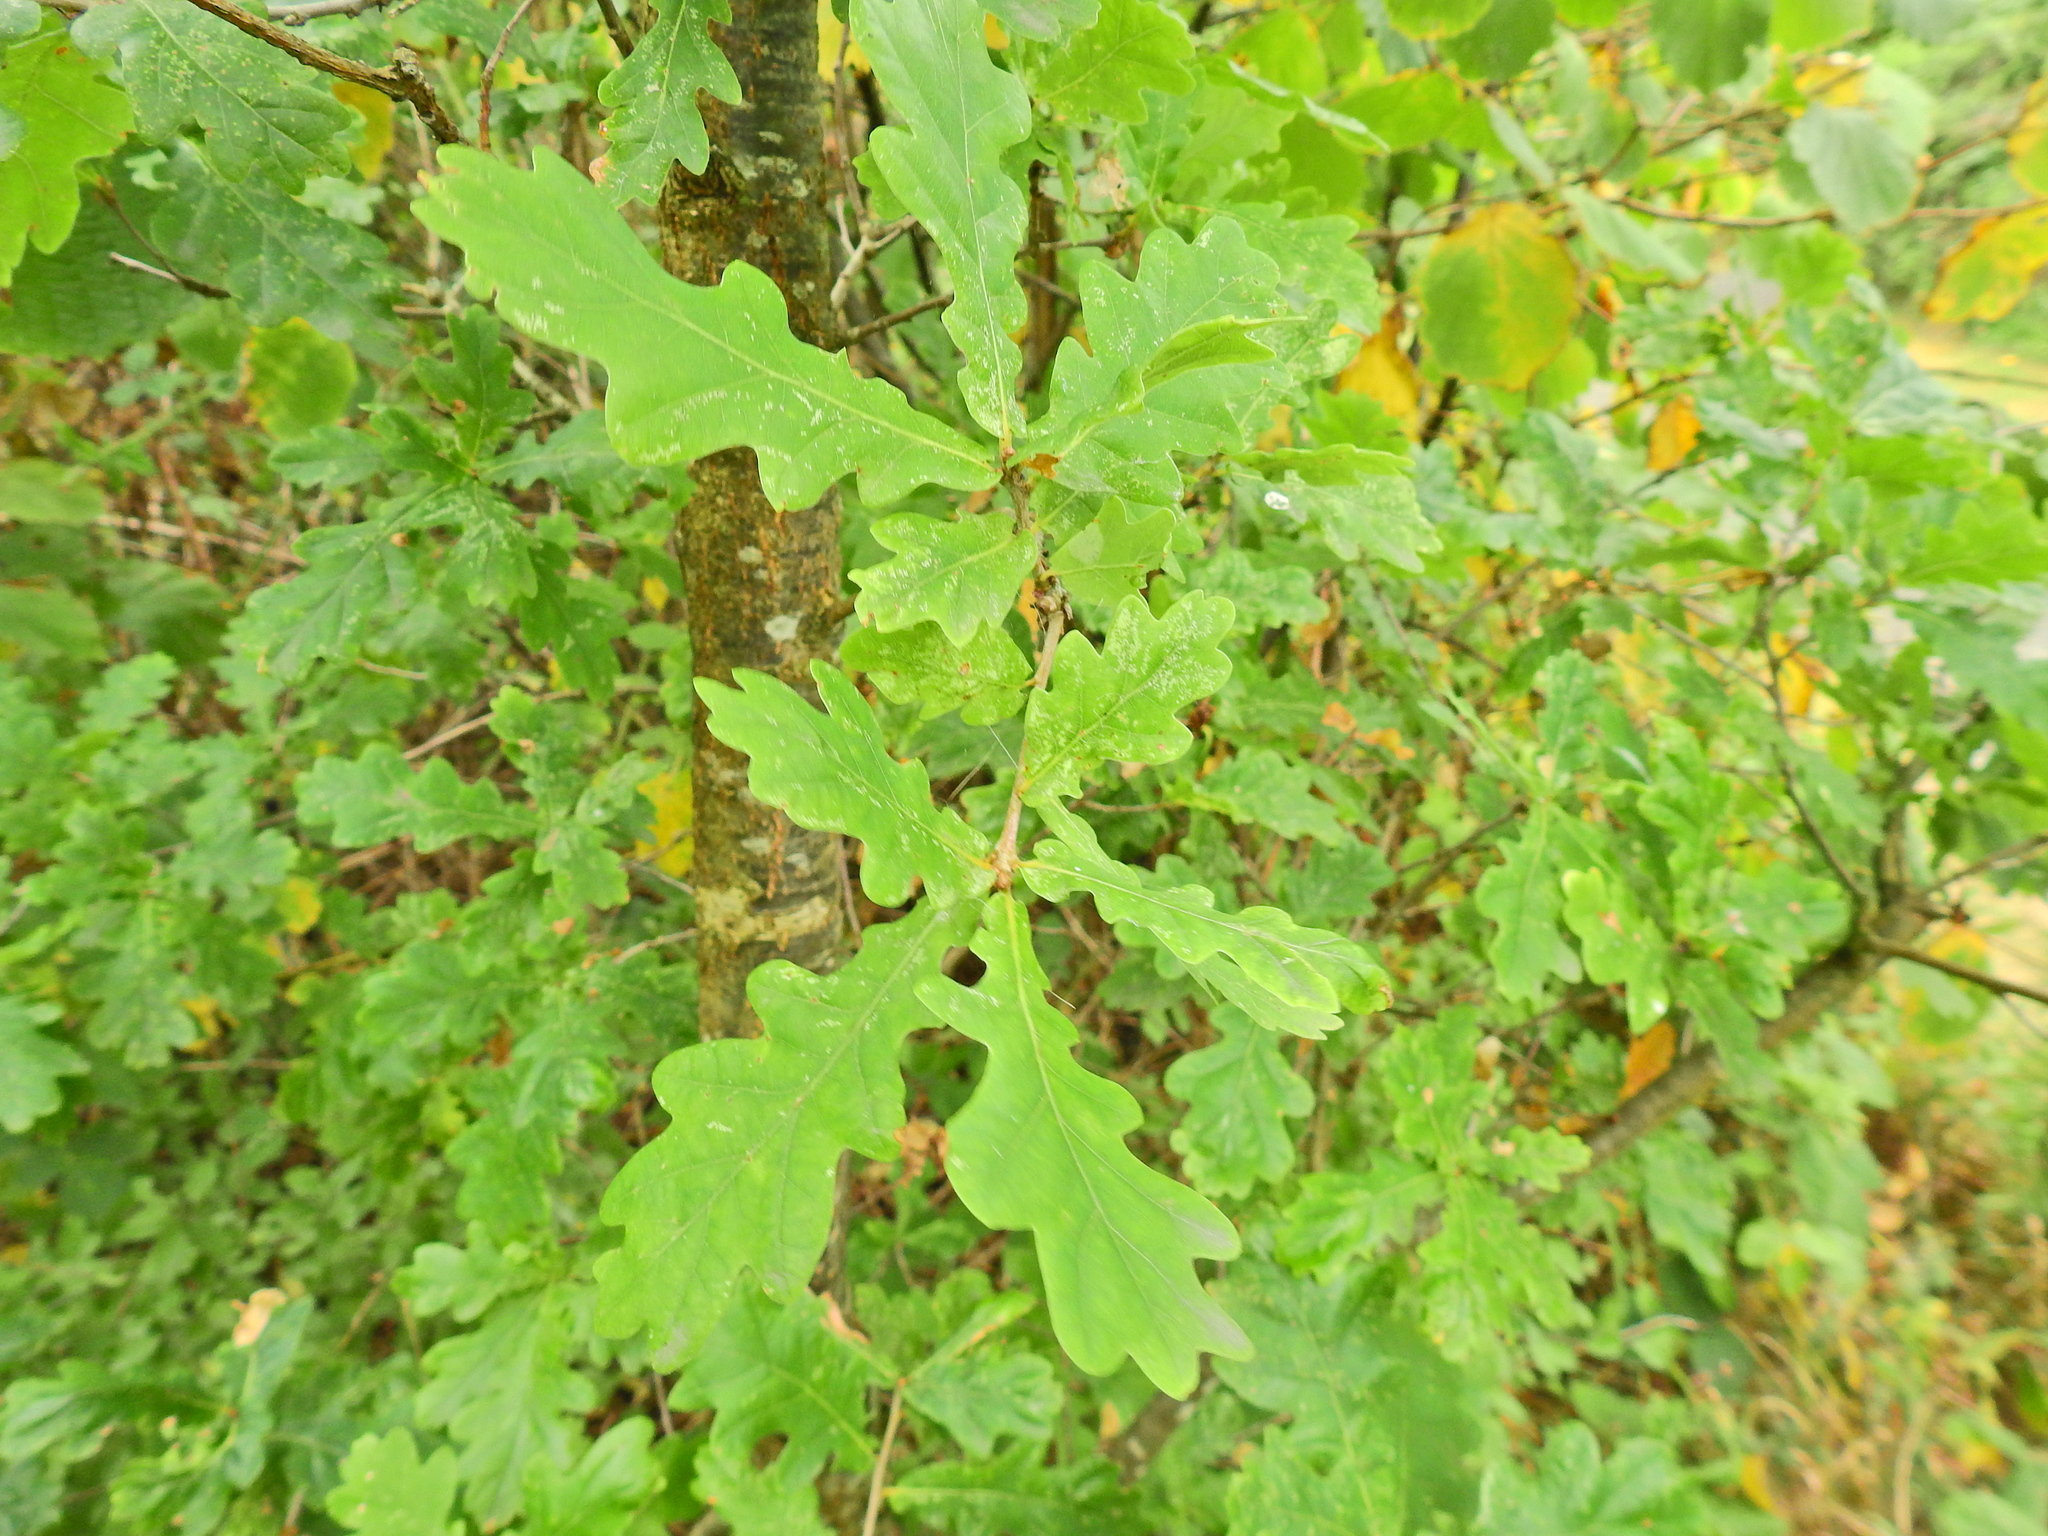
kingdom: Plantae
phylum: Tracheophyta
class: Magnoliopsida
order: Fagales
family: Fagaceae
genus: Quercus
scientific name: Quercus robur
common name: Pedunculate oak
